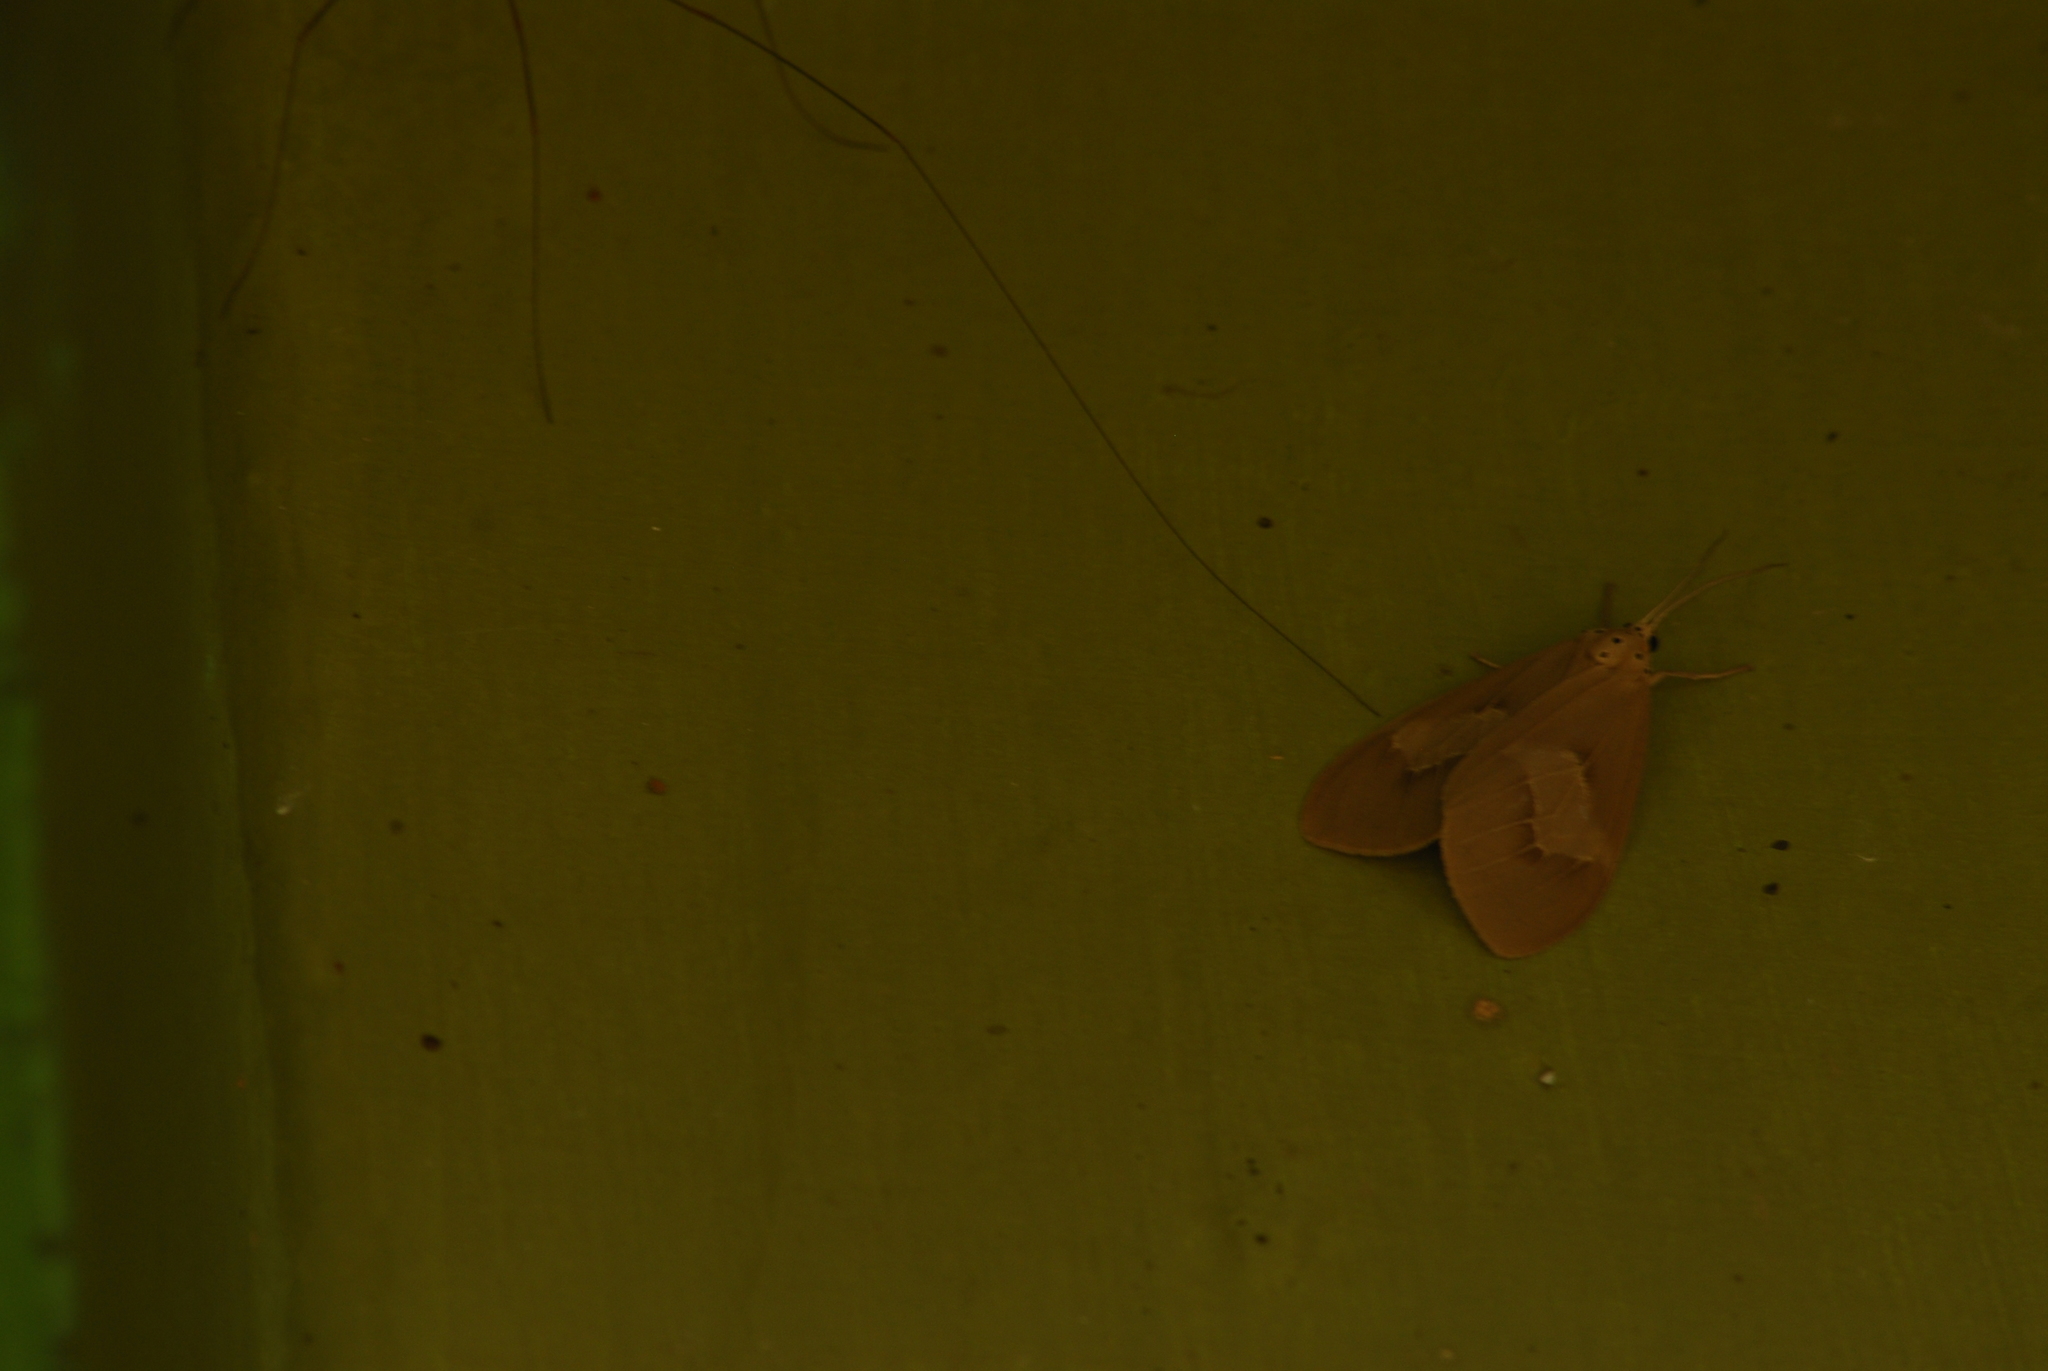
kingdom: Animalia
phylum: Arthropoda
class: Insecta
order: Lepidoptera
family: Erebidae
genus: Paraplastis
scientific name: Paraplastis hampsoni
